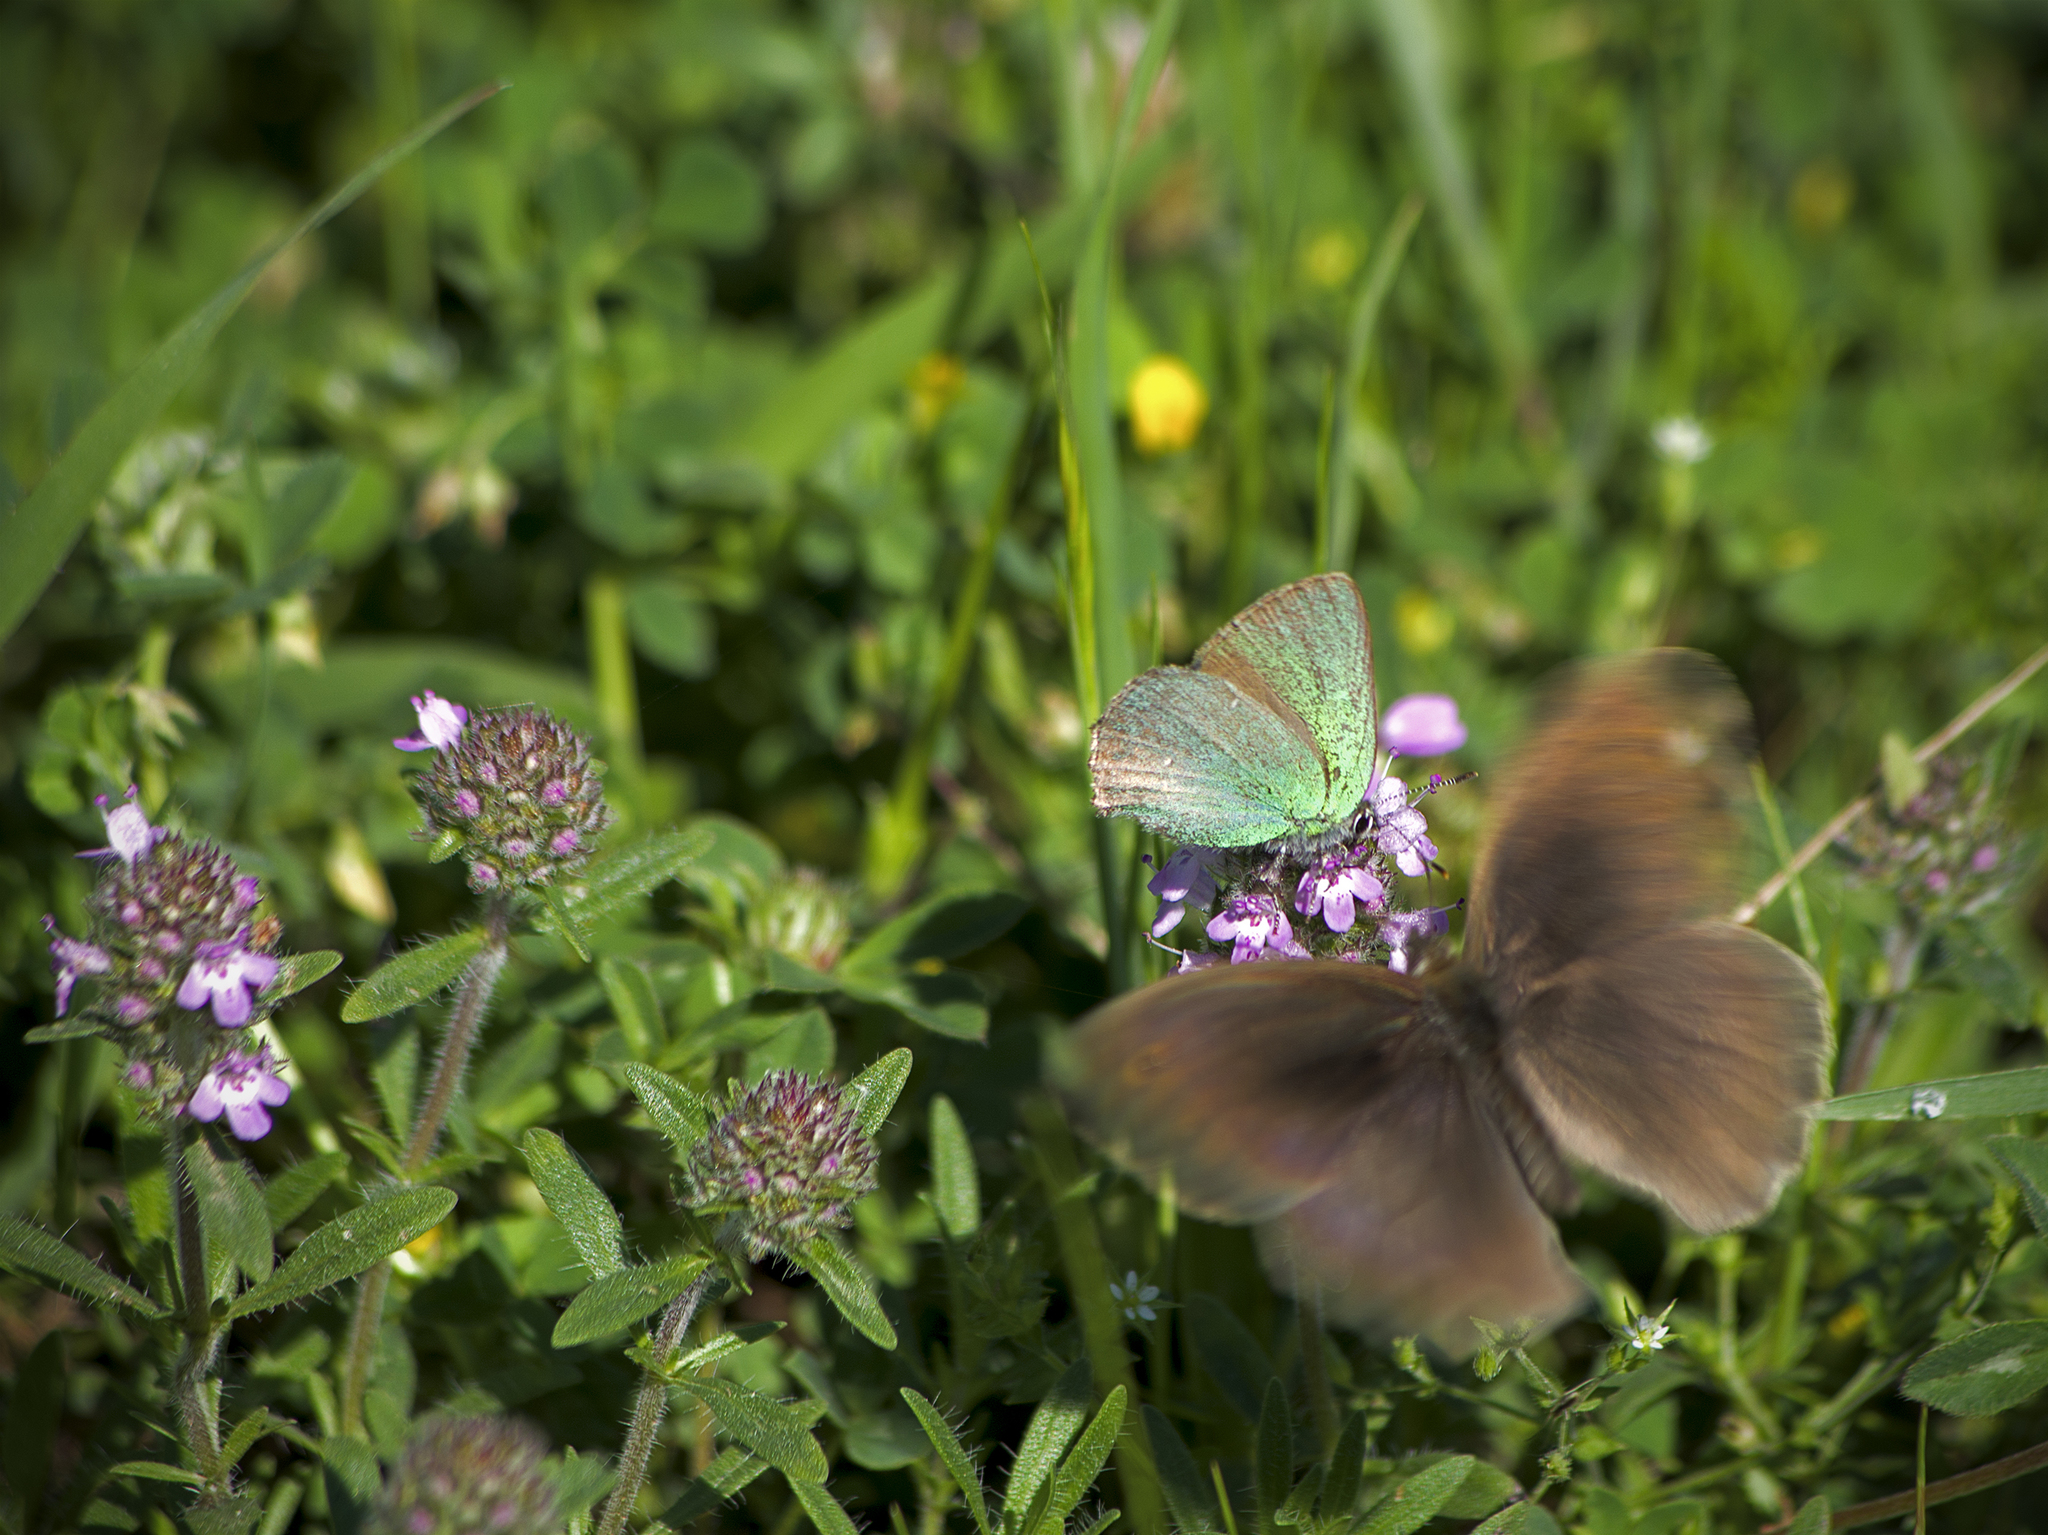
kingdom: Animalia
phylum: Arthropoda
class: Insecta
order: Lepidoptera
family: Lycaenidae
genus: Callophrys
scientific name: Callophrys rubi
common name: Green hairstreak
